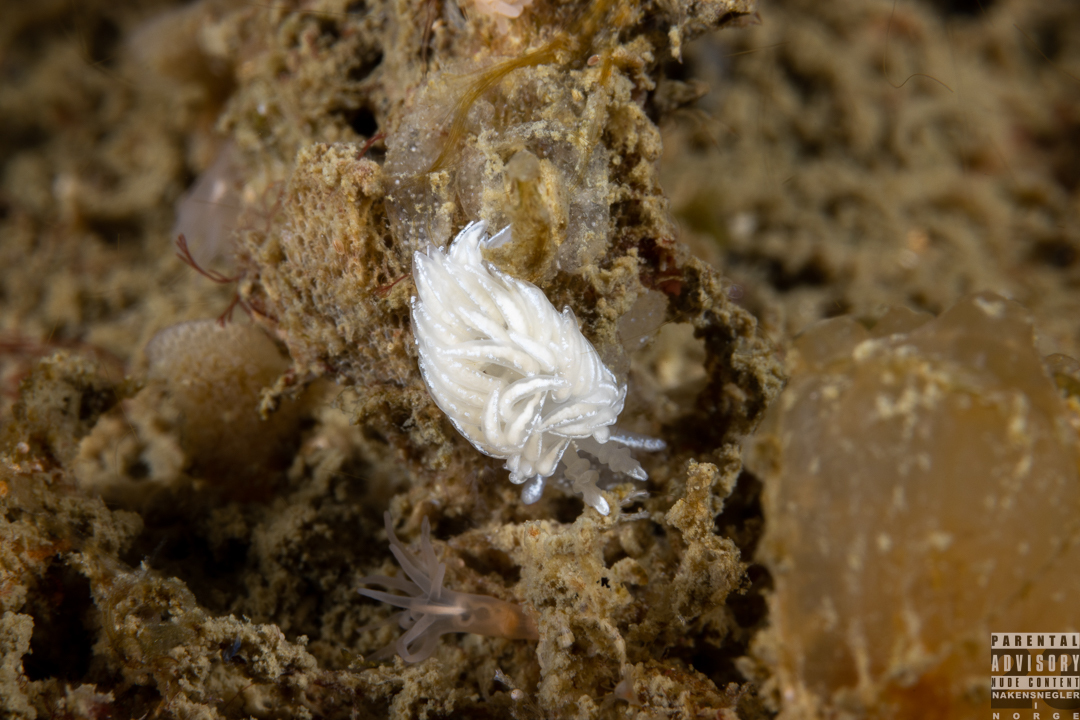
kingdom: Animalia
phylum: Mollusca
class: Gastropoda
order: Nudibranchia
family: Facelinidae
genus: Favorinus
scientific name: Favorinus blianus
